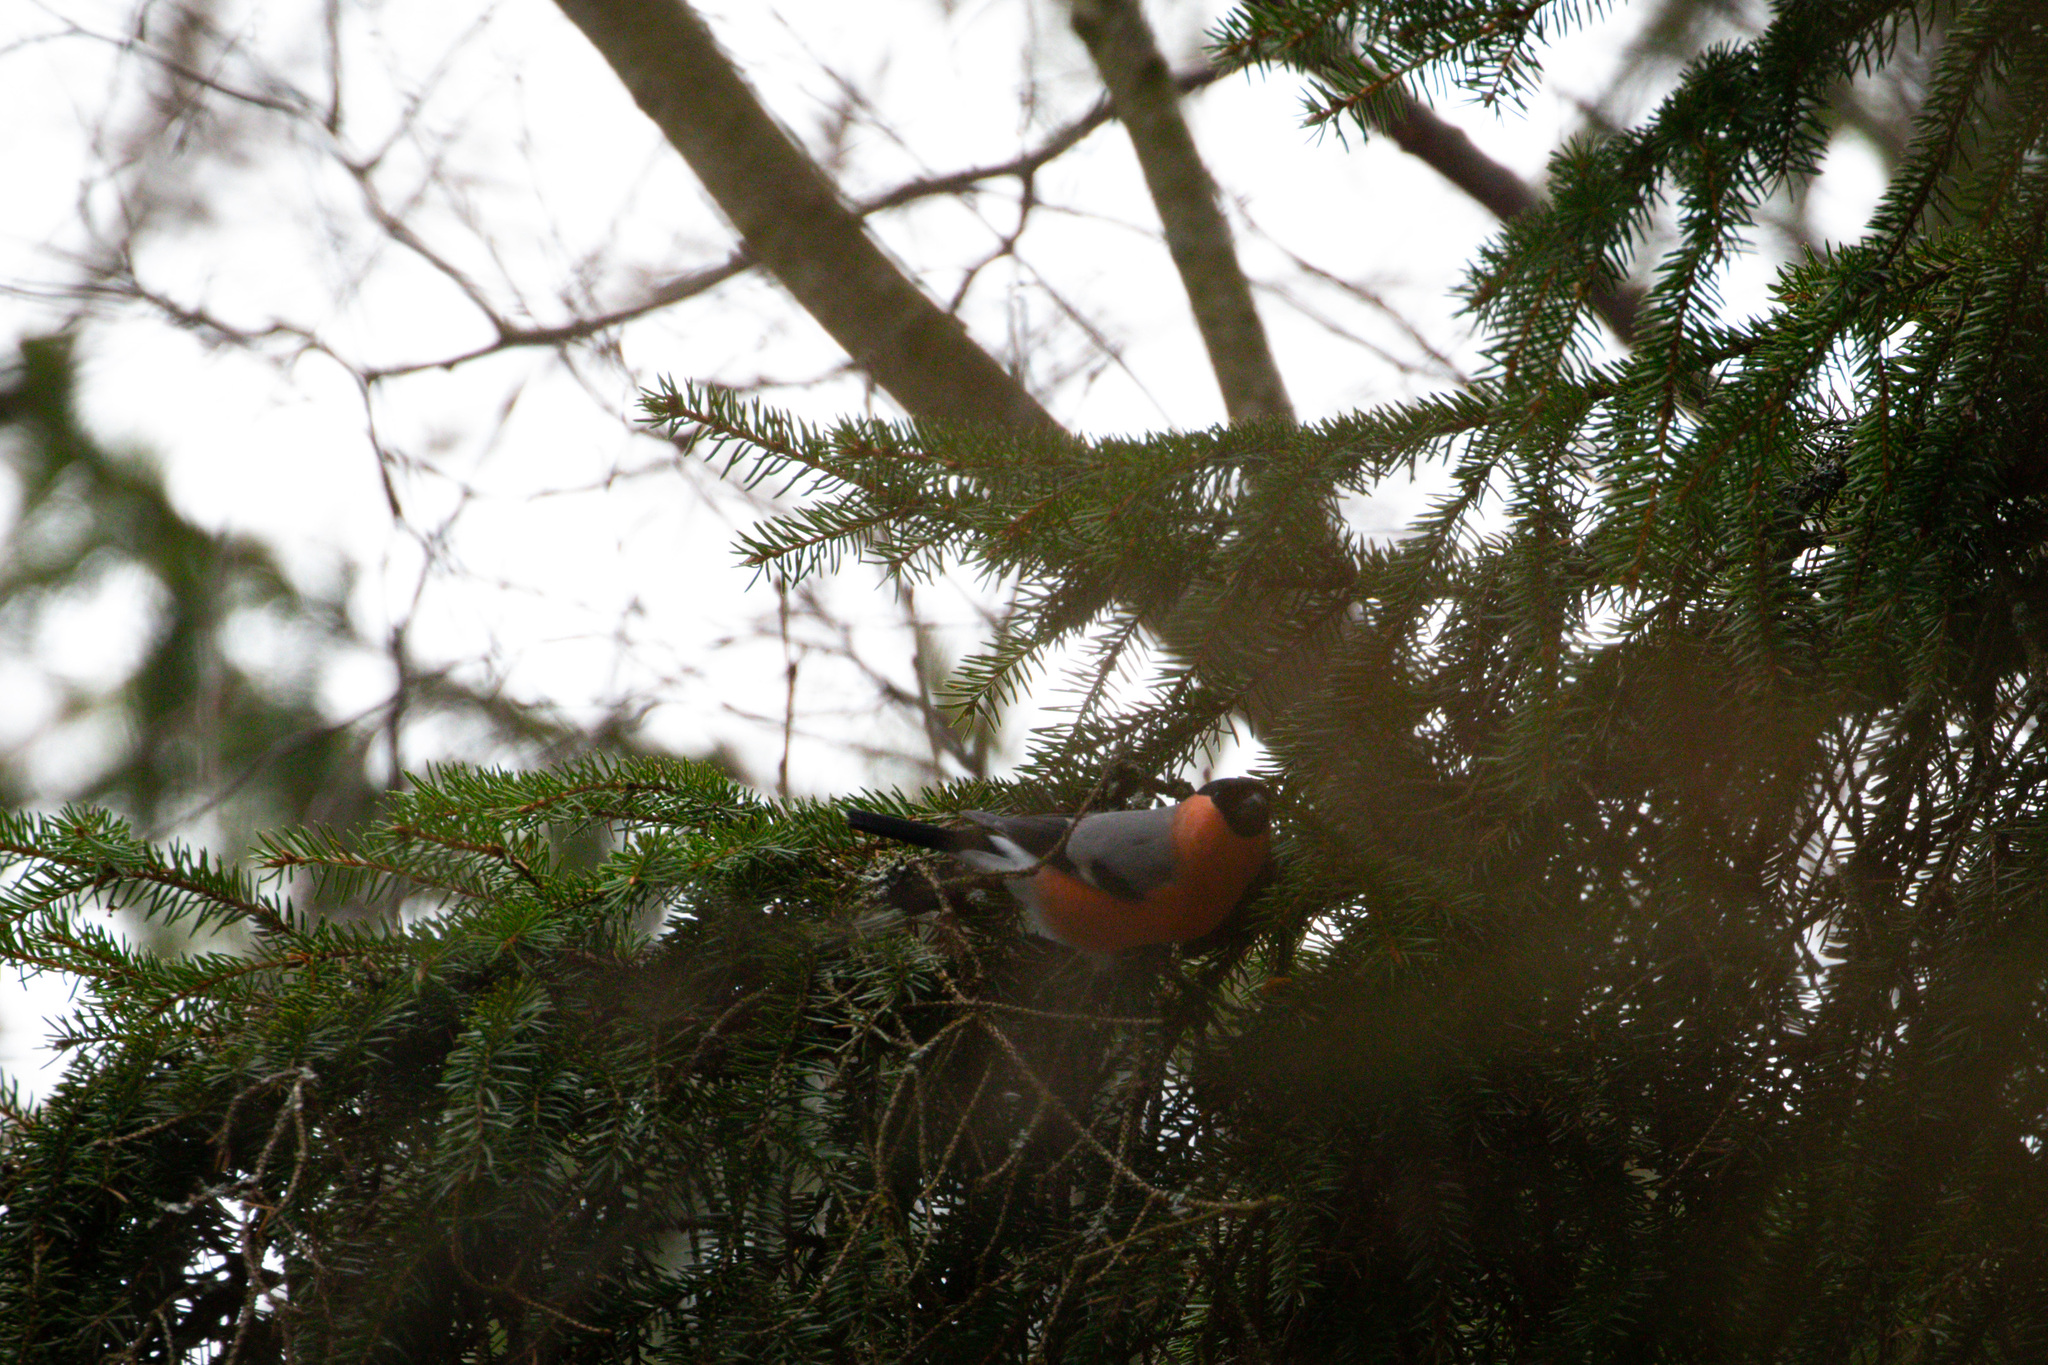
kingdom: Animalia
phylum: Chordata
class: Aves
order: Passeriformes
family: Fringillidae
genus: Pyrrhula
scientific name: Pyrrhula pyrrhula
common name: Eurasian bullfinch
